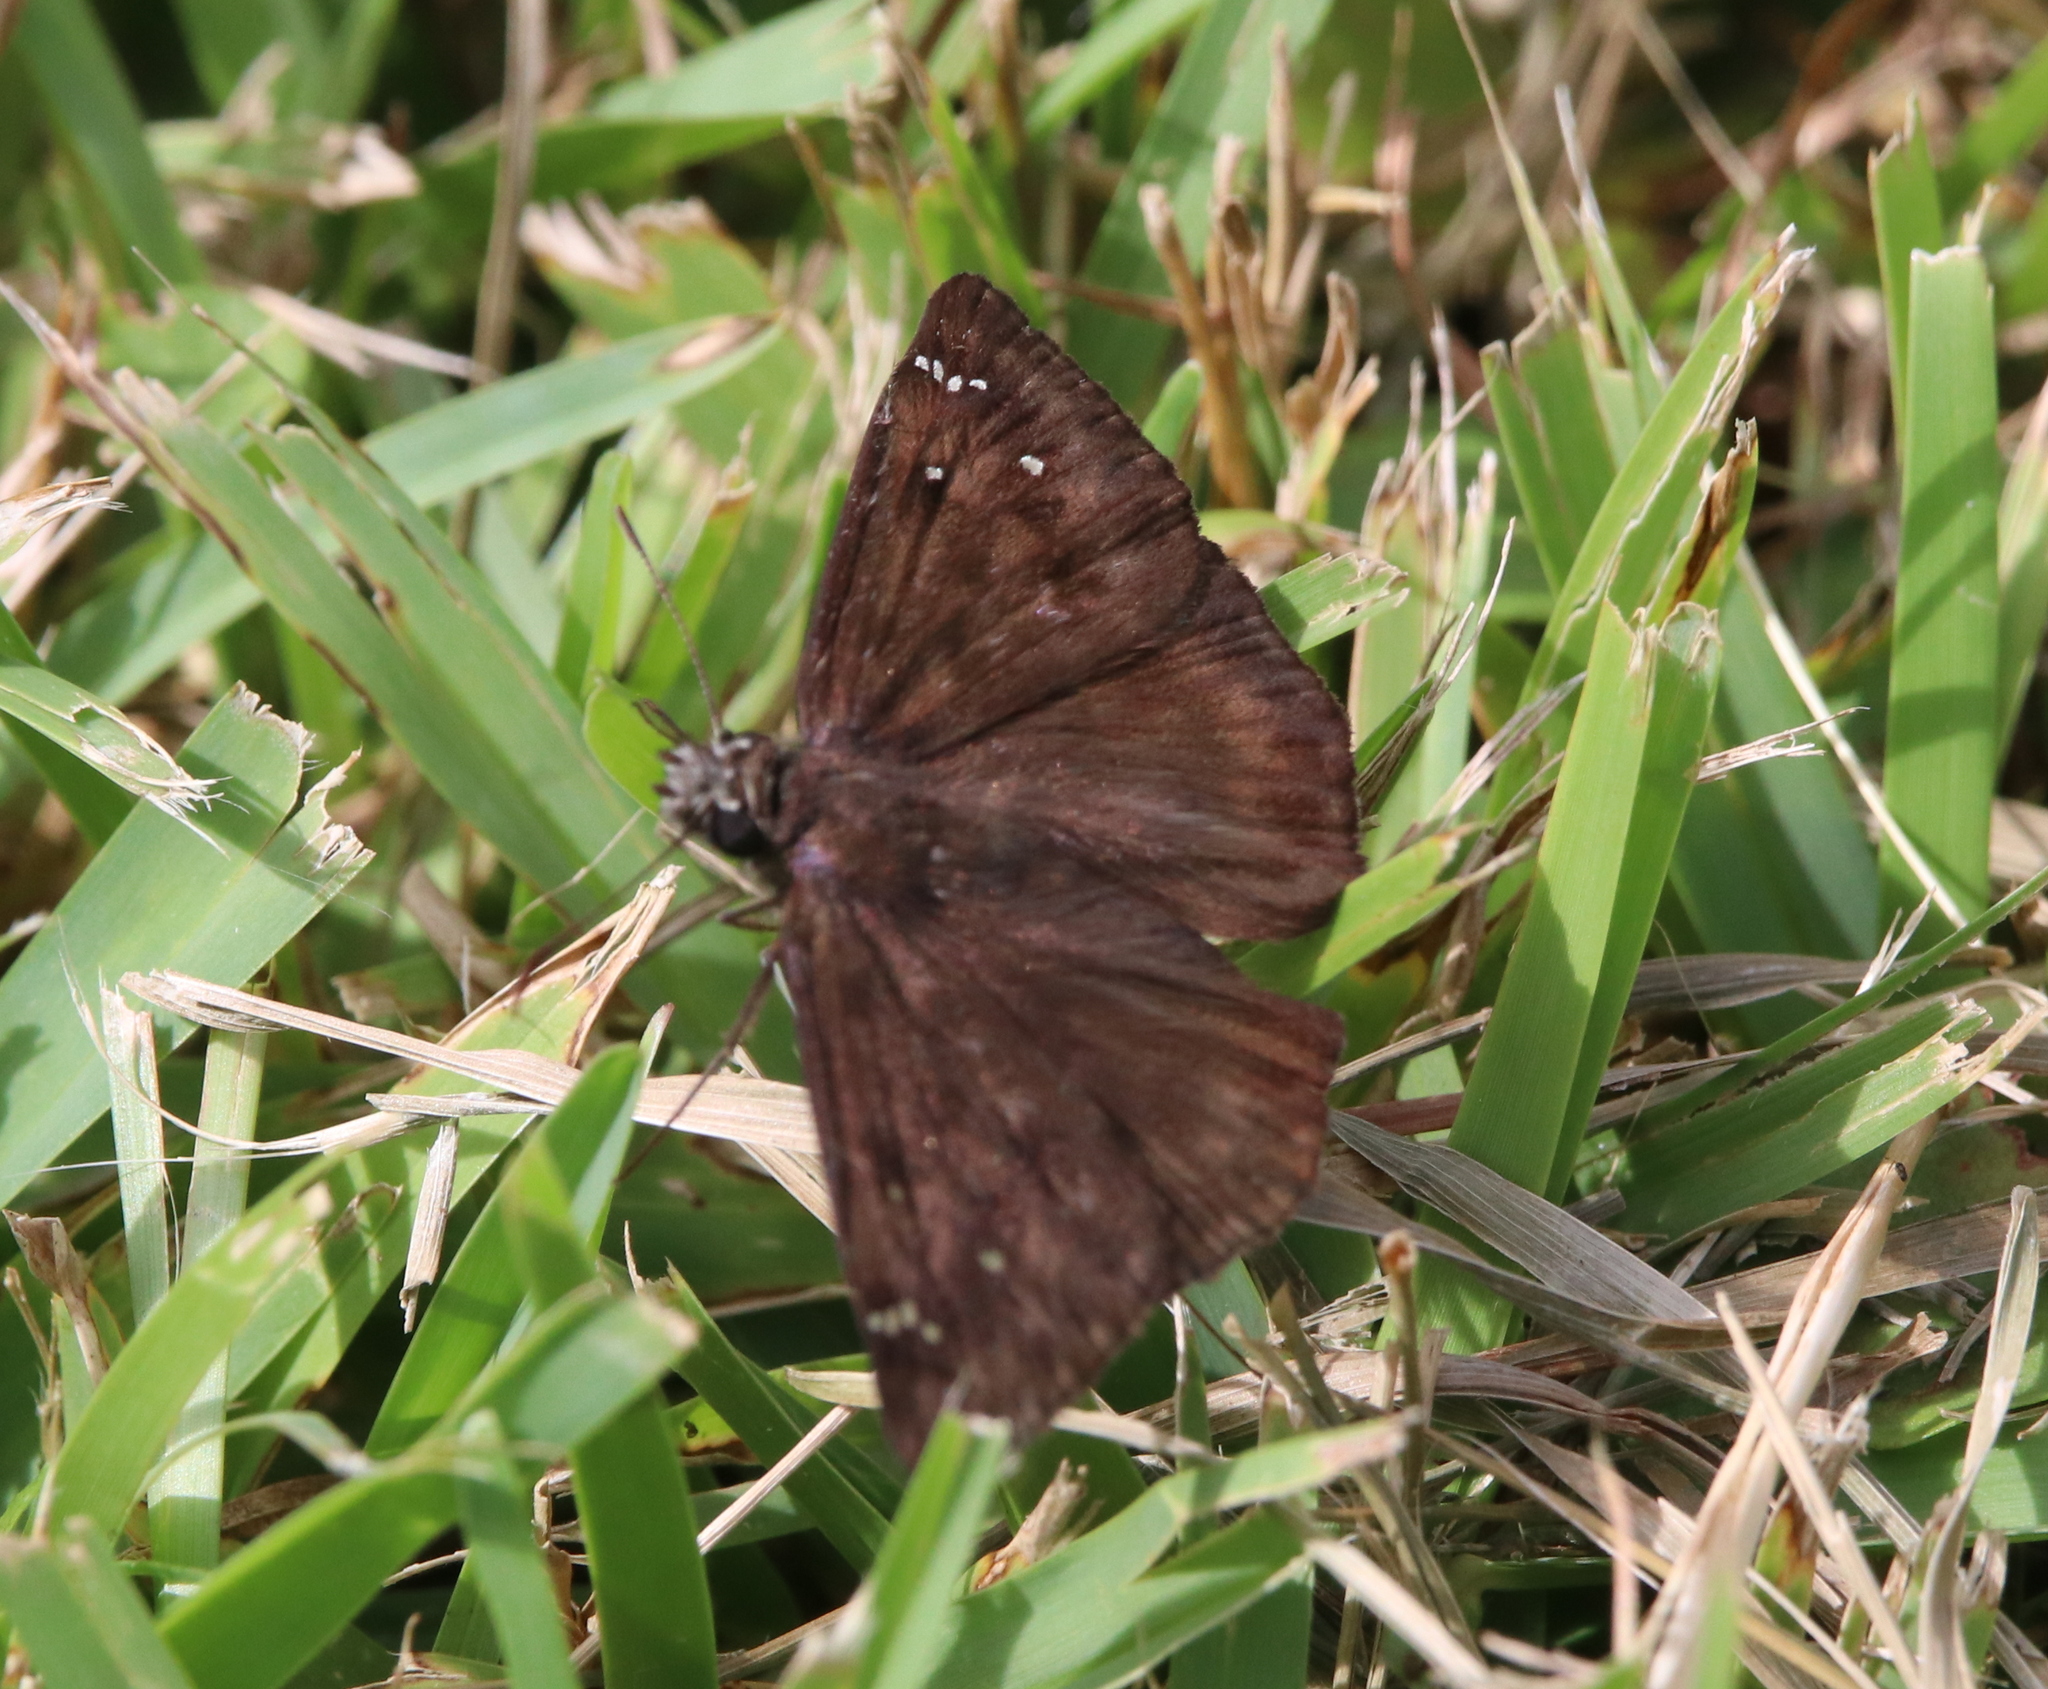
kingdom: Animalia
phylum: Arthropoda
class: Insecta
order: Lepidoptera
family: Hesperiidae
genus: Erynnis
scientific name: Erynnis horatius
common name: Horace's duskywing
